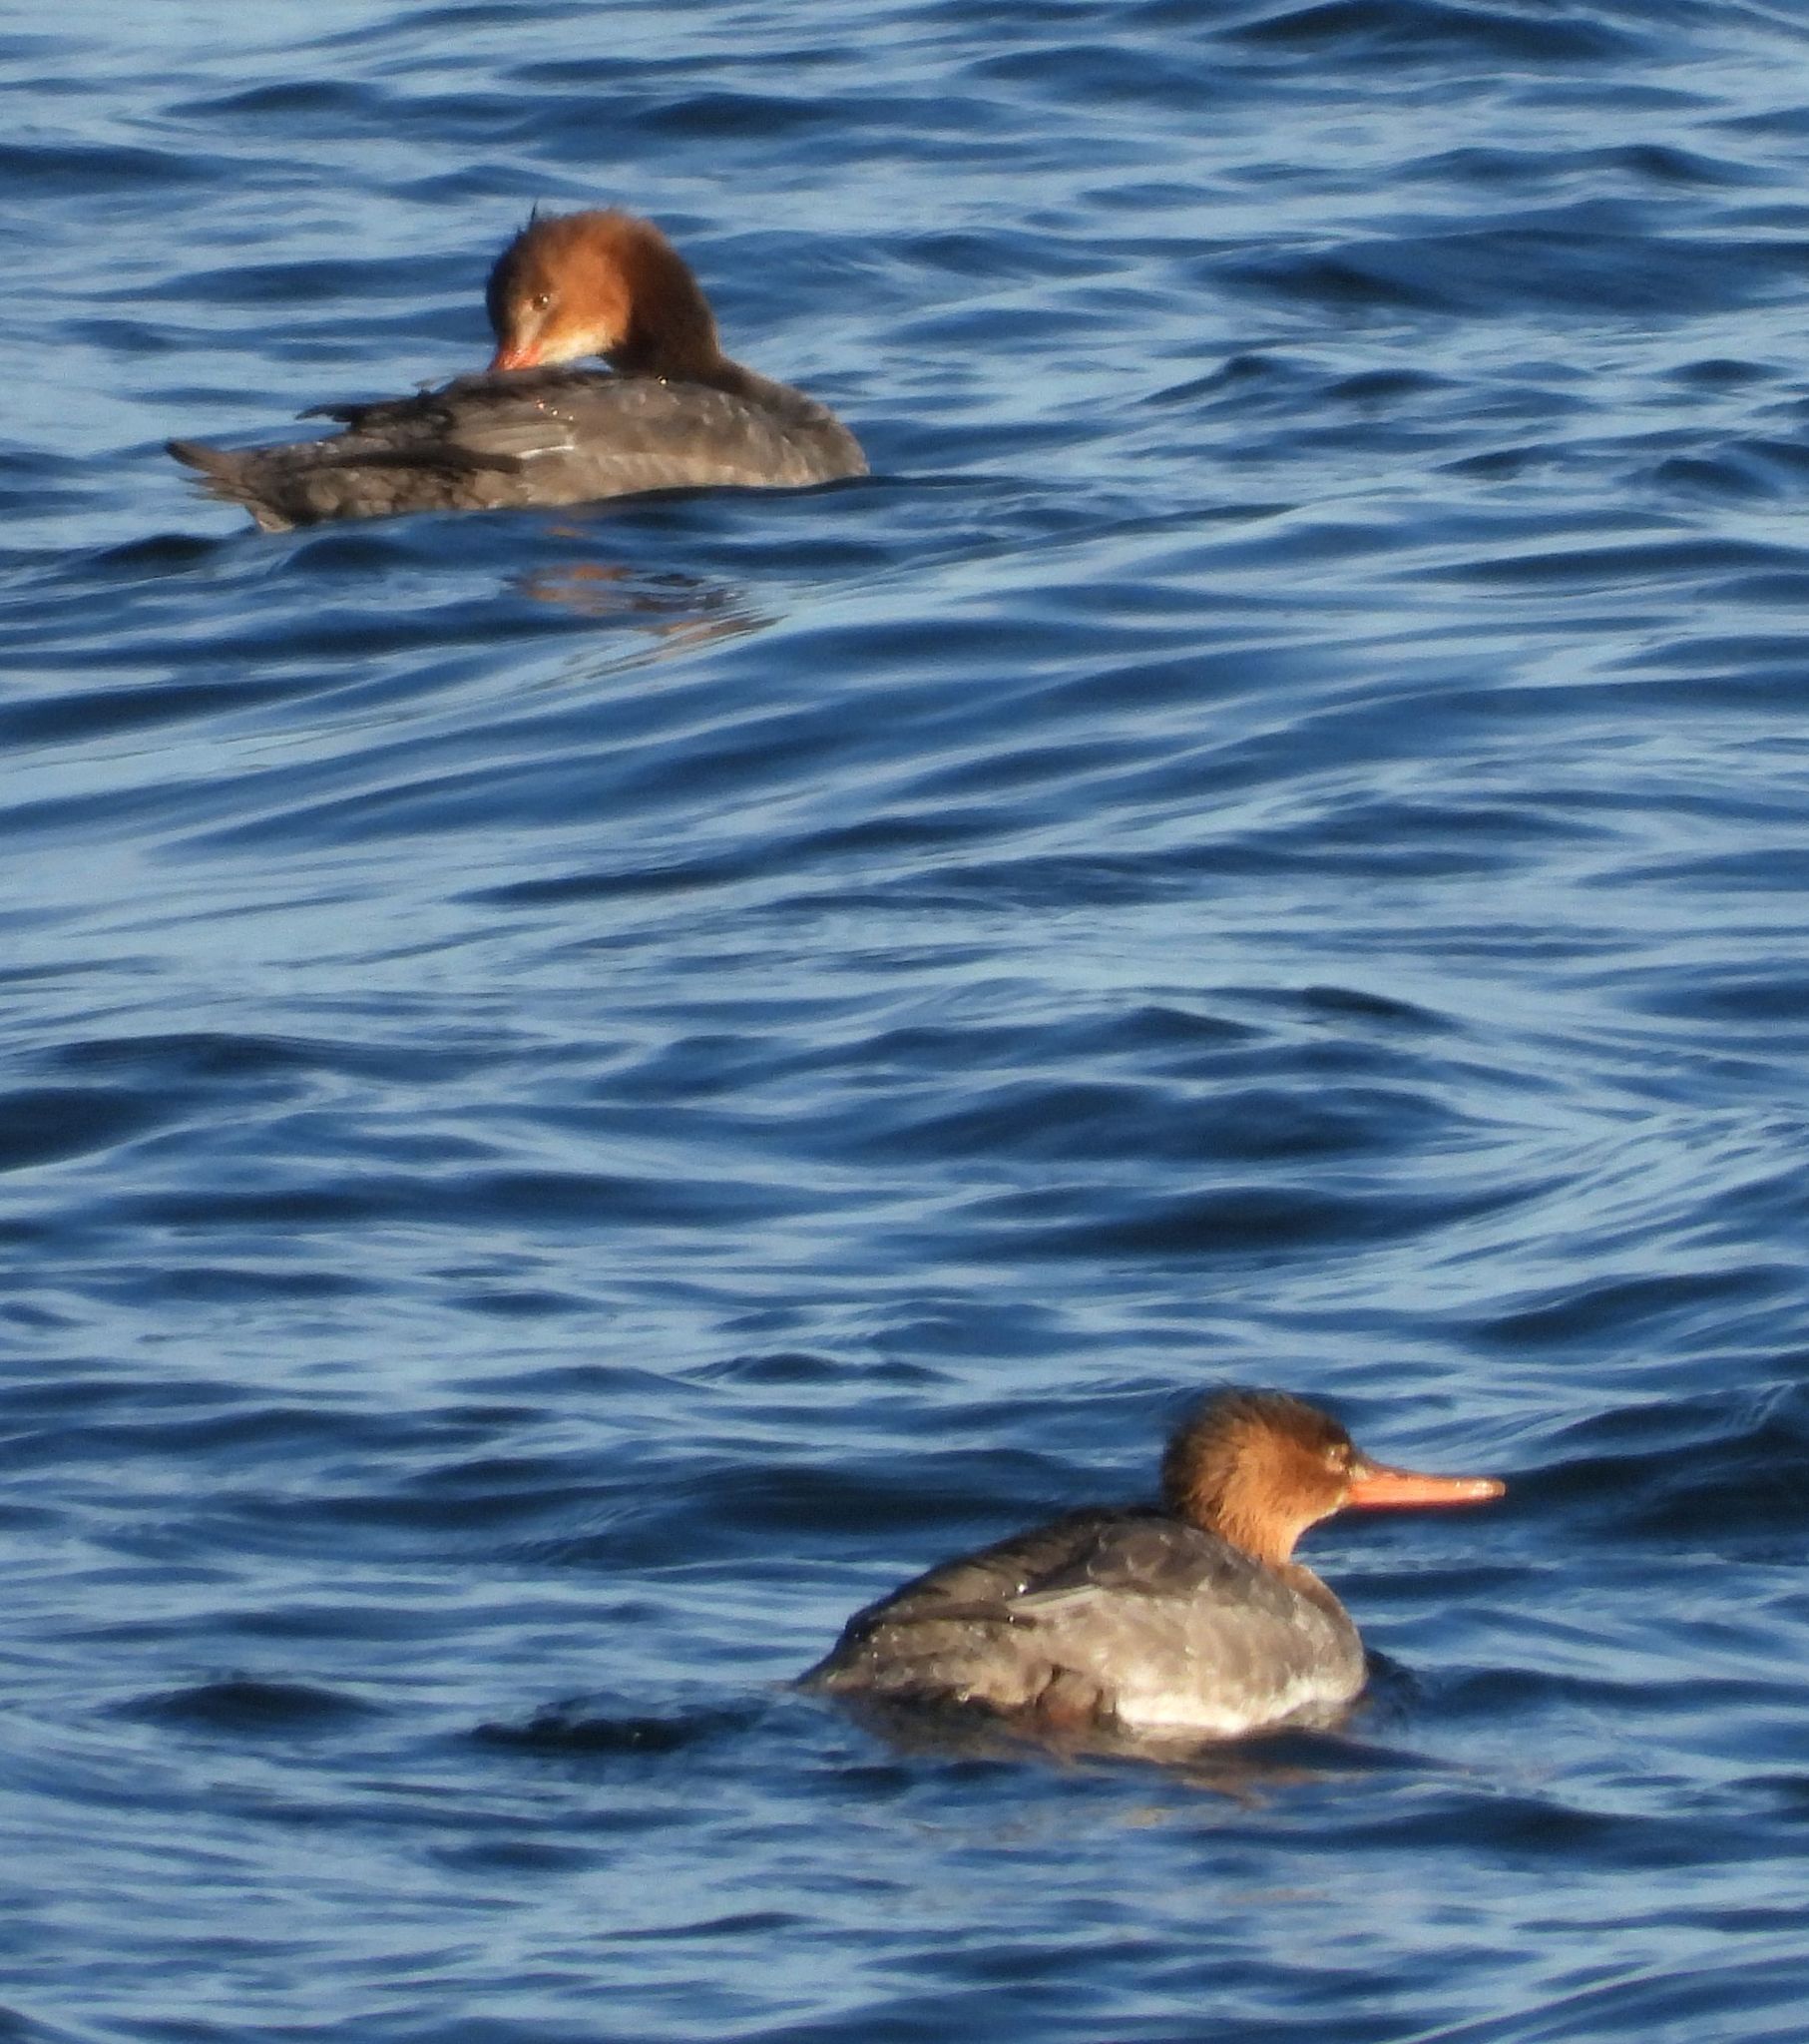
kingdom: Animalia
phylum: Chordata
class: Aves
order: Anseriformes
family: Anatidae
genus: Mergus
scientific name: Mergus serrator
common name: Red-breasted merganser
